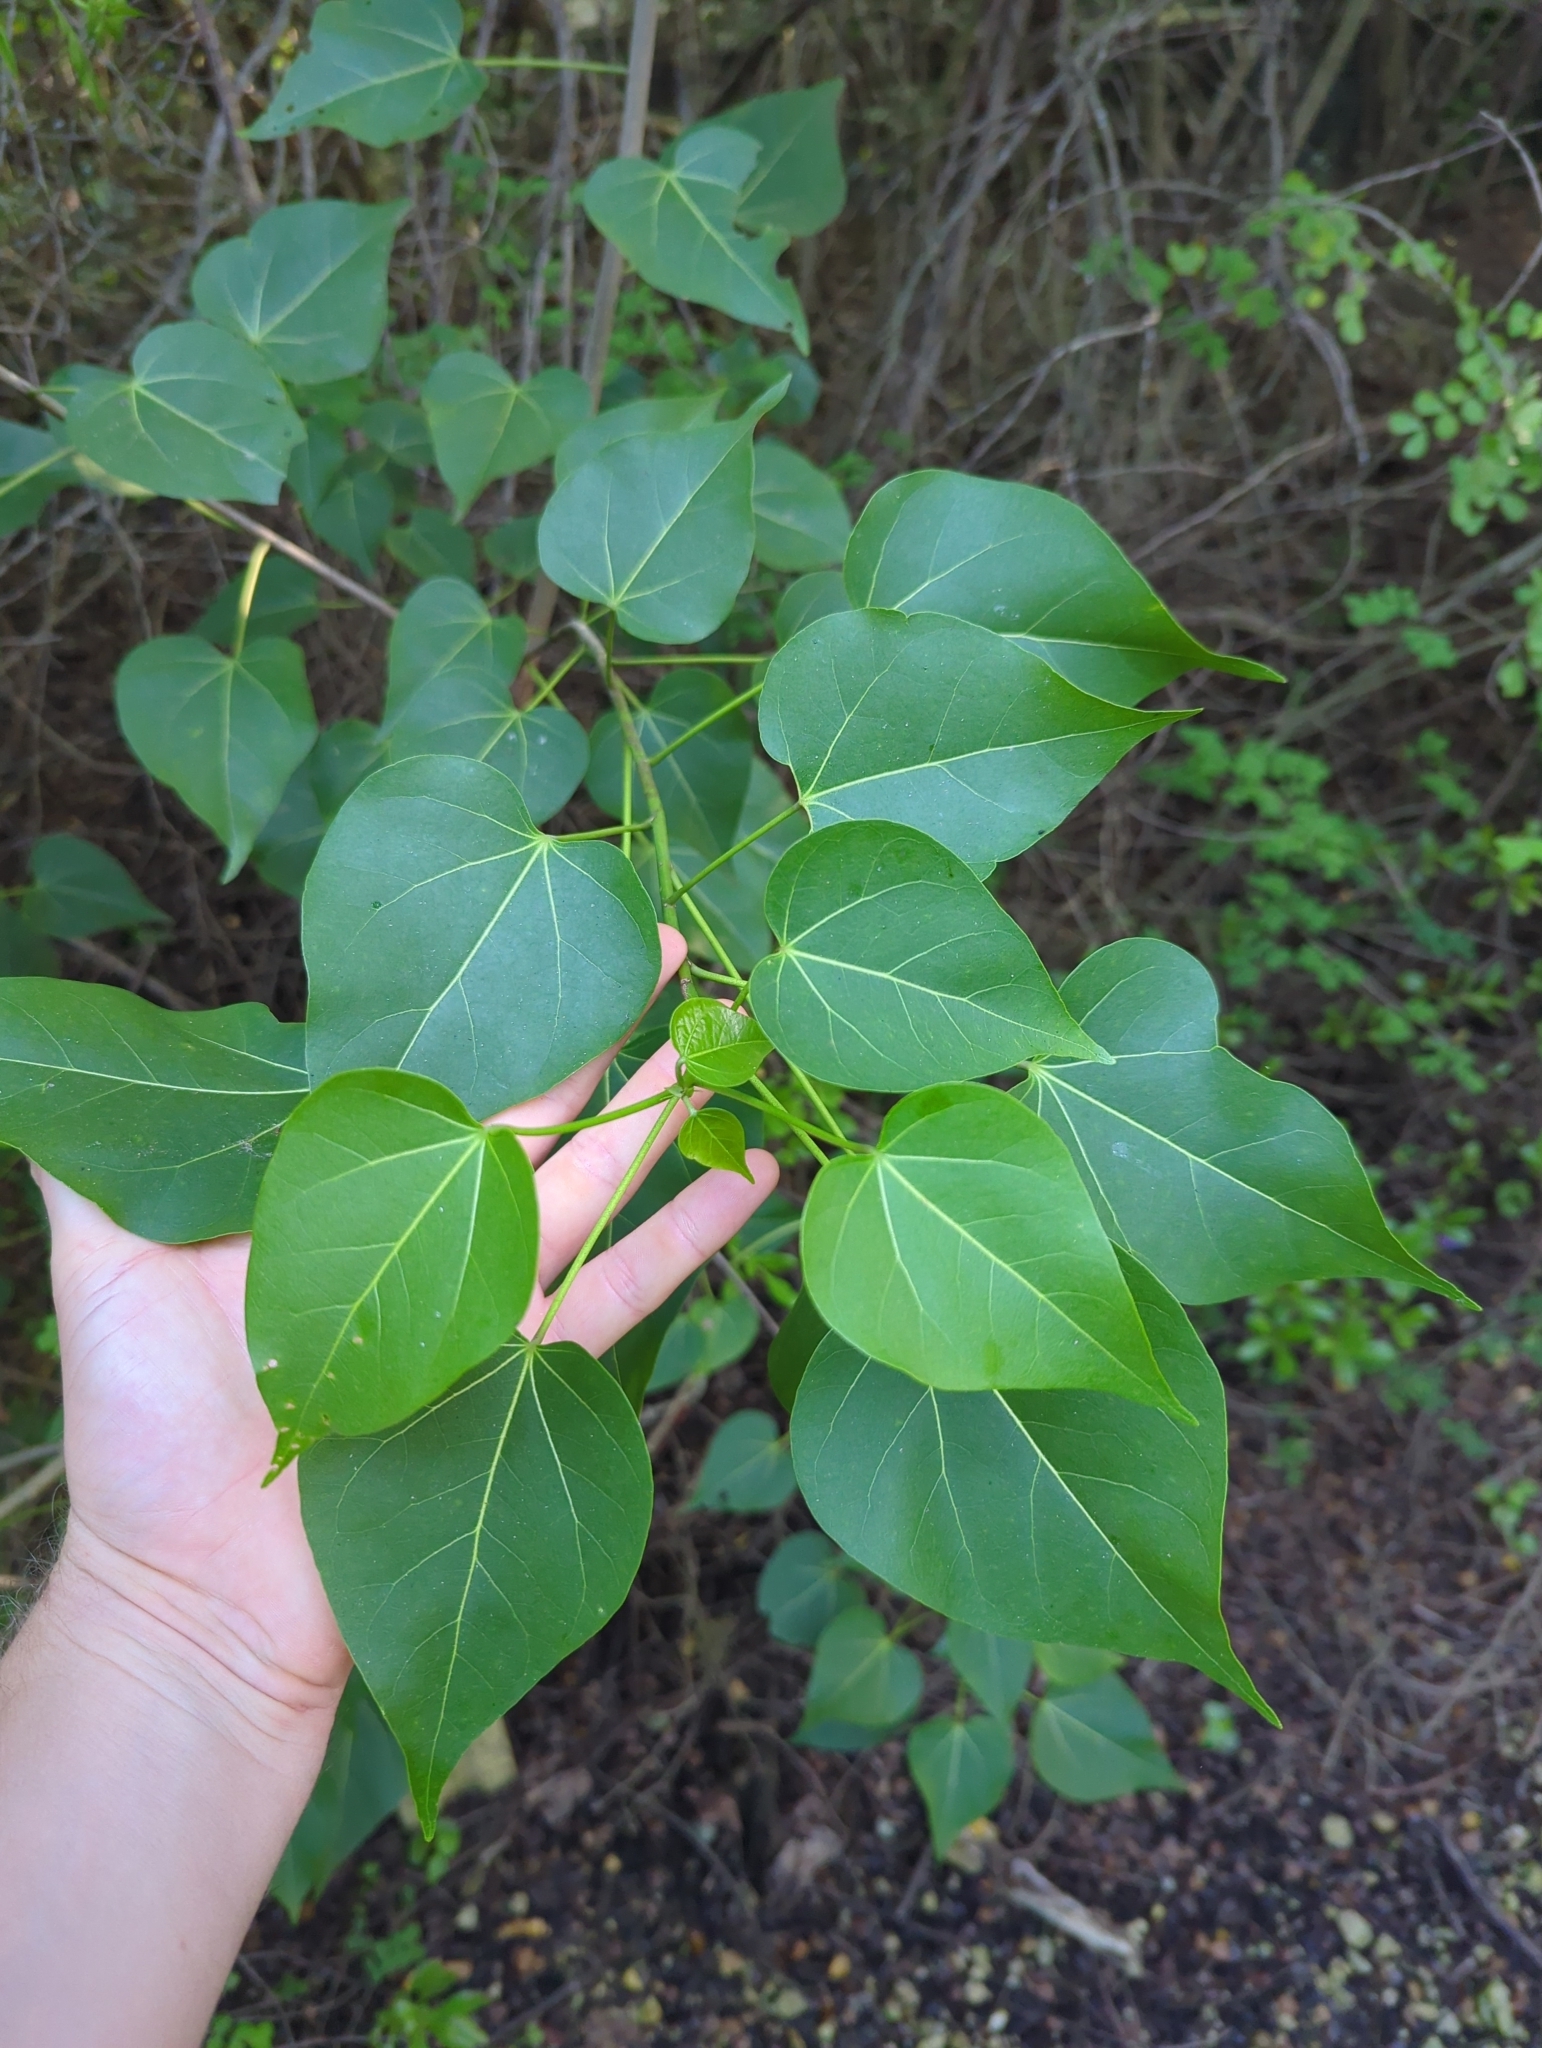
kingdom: Plantae
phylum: Tracheophyta
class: Magnoliopsida
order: Malvales
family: Malvaceae
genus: Thespesia
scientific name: Thespesia populnea
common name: Seaside mahoe
